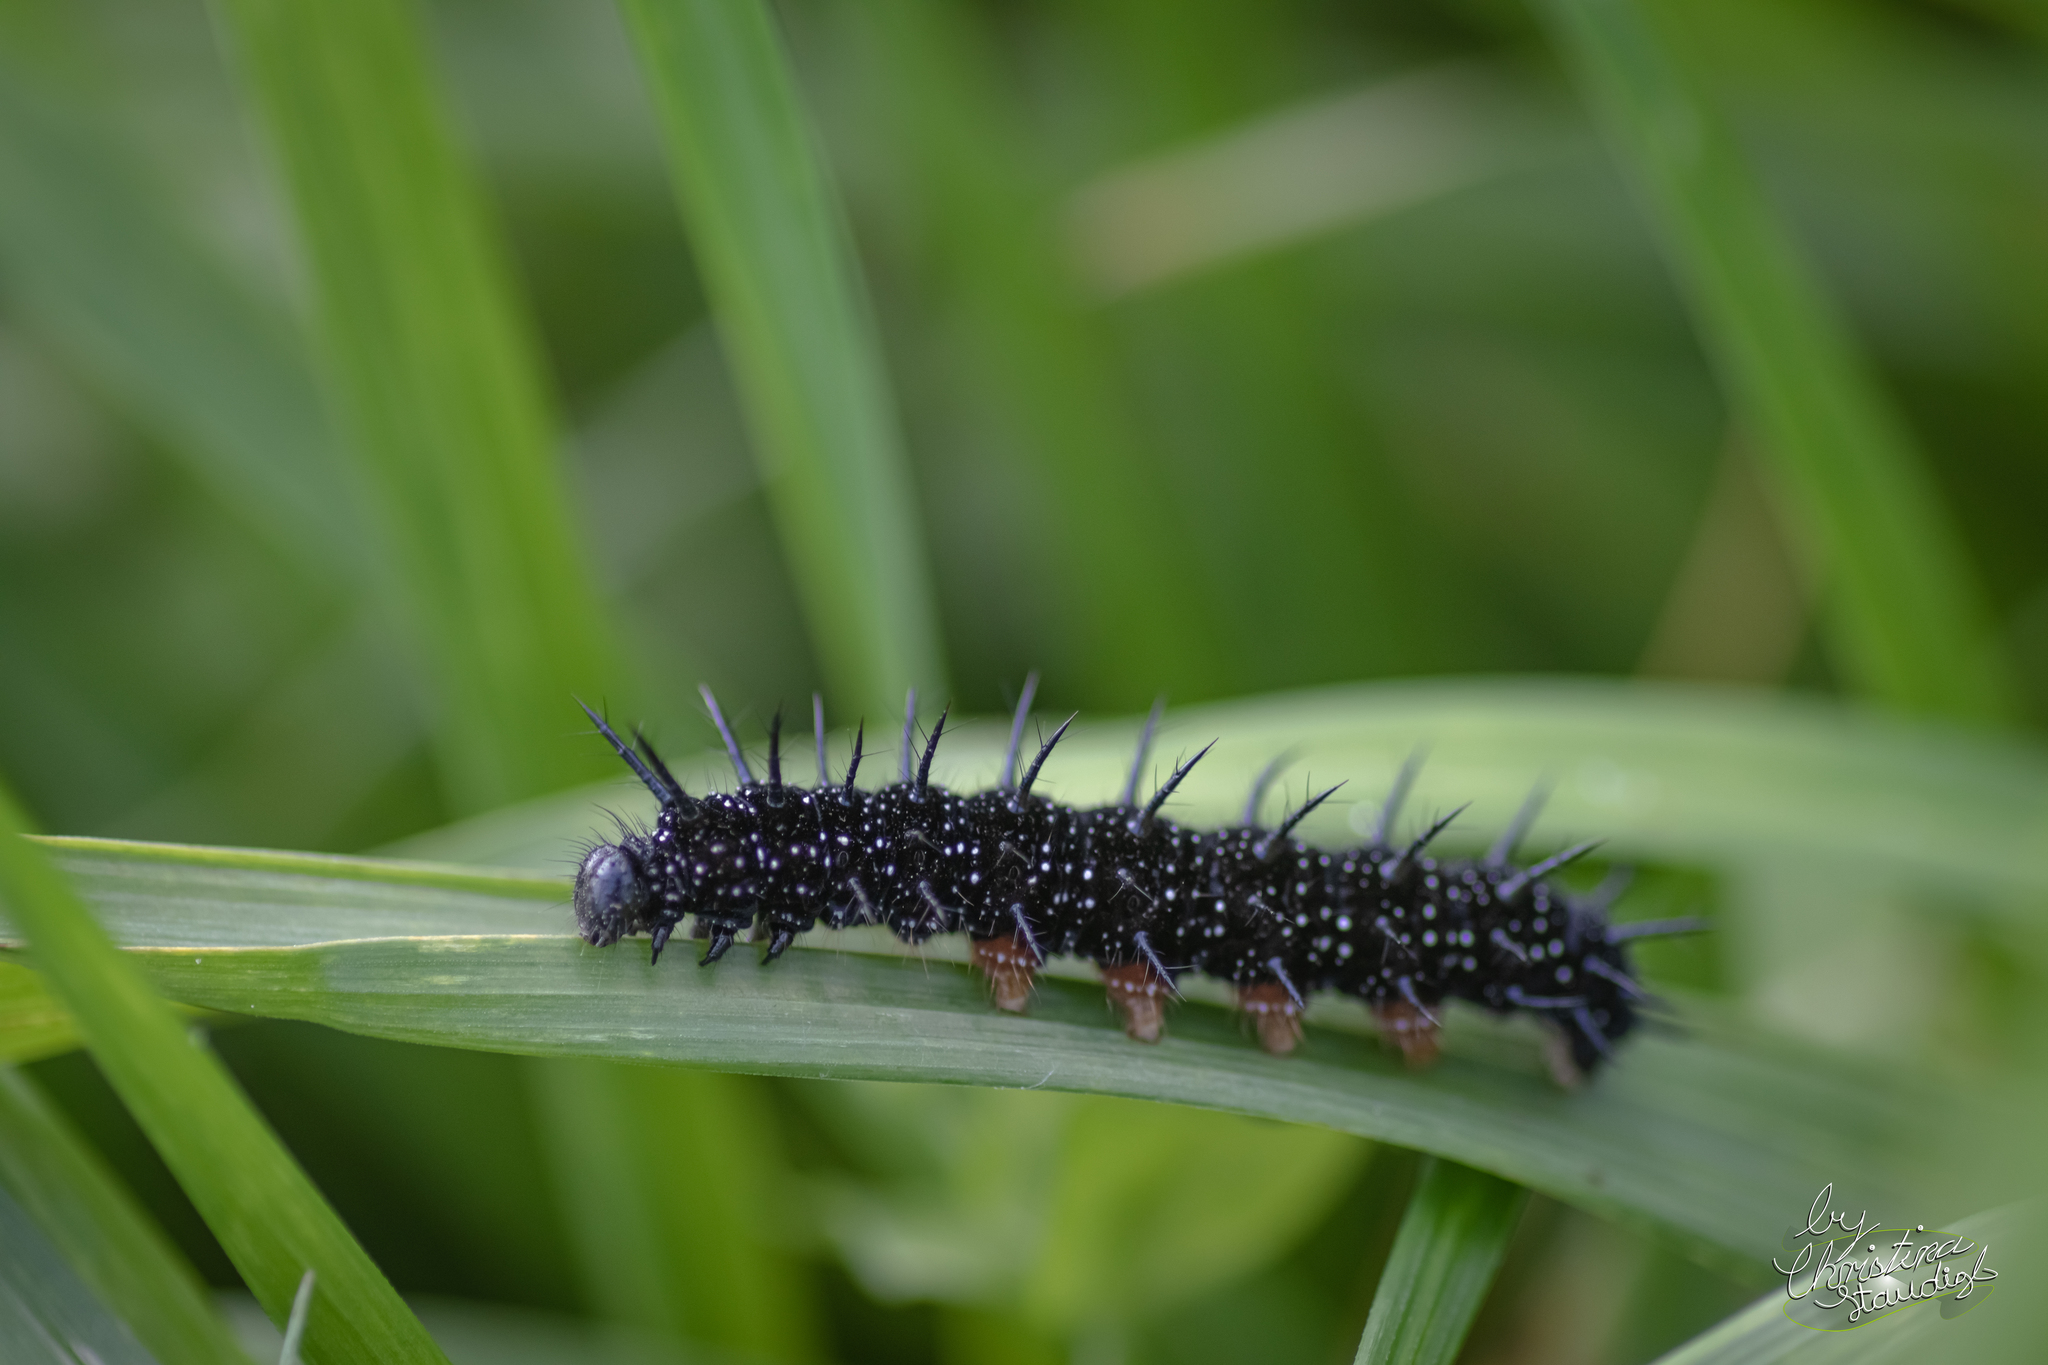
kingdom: Animalia
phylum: Arthropoda
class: Insecta
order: Lepidoptera
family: Nymphalidae
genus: Aglais
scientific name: Aglais io
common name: Peacock
